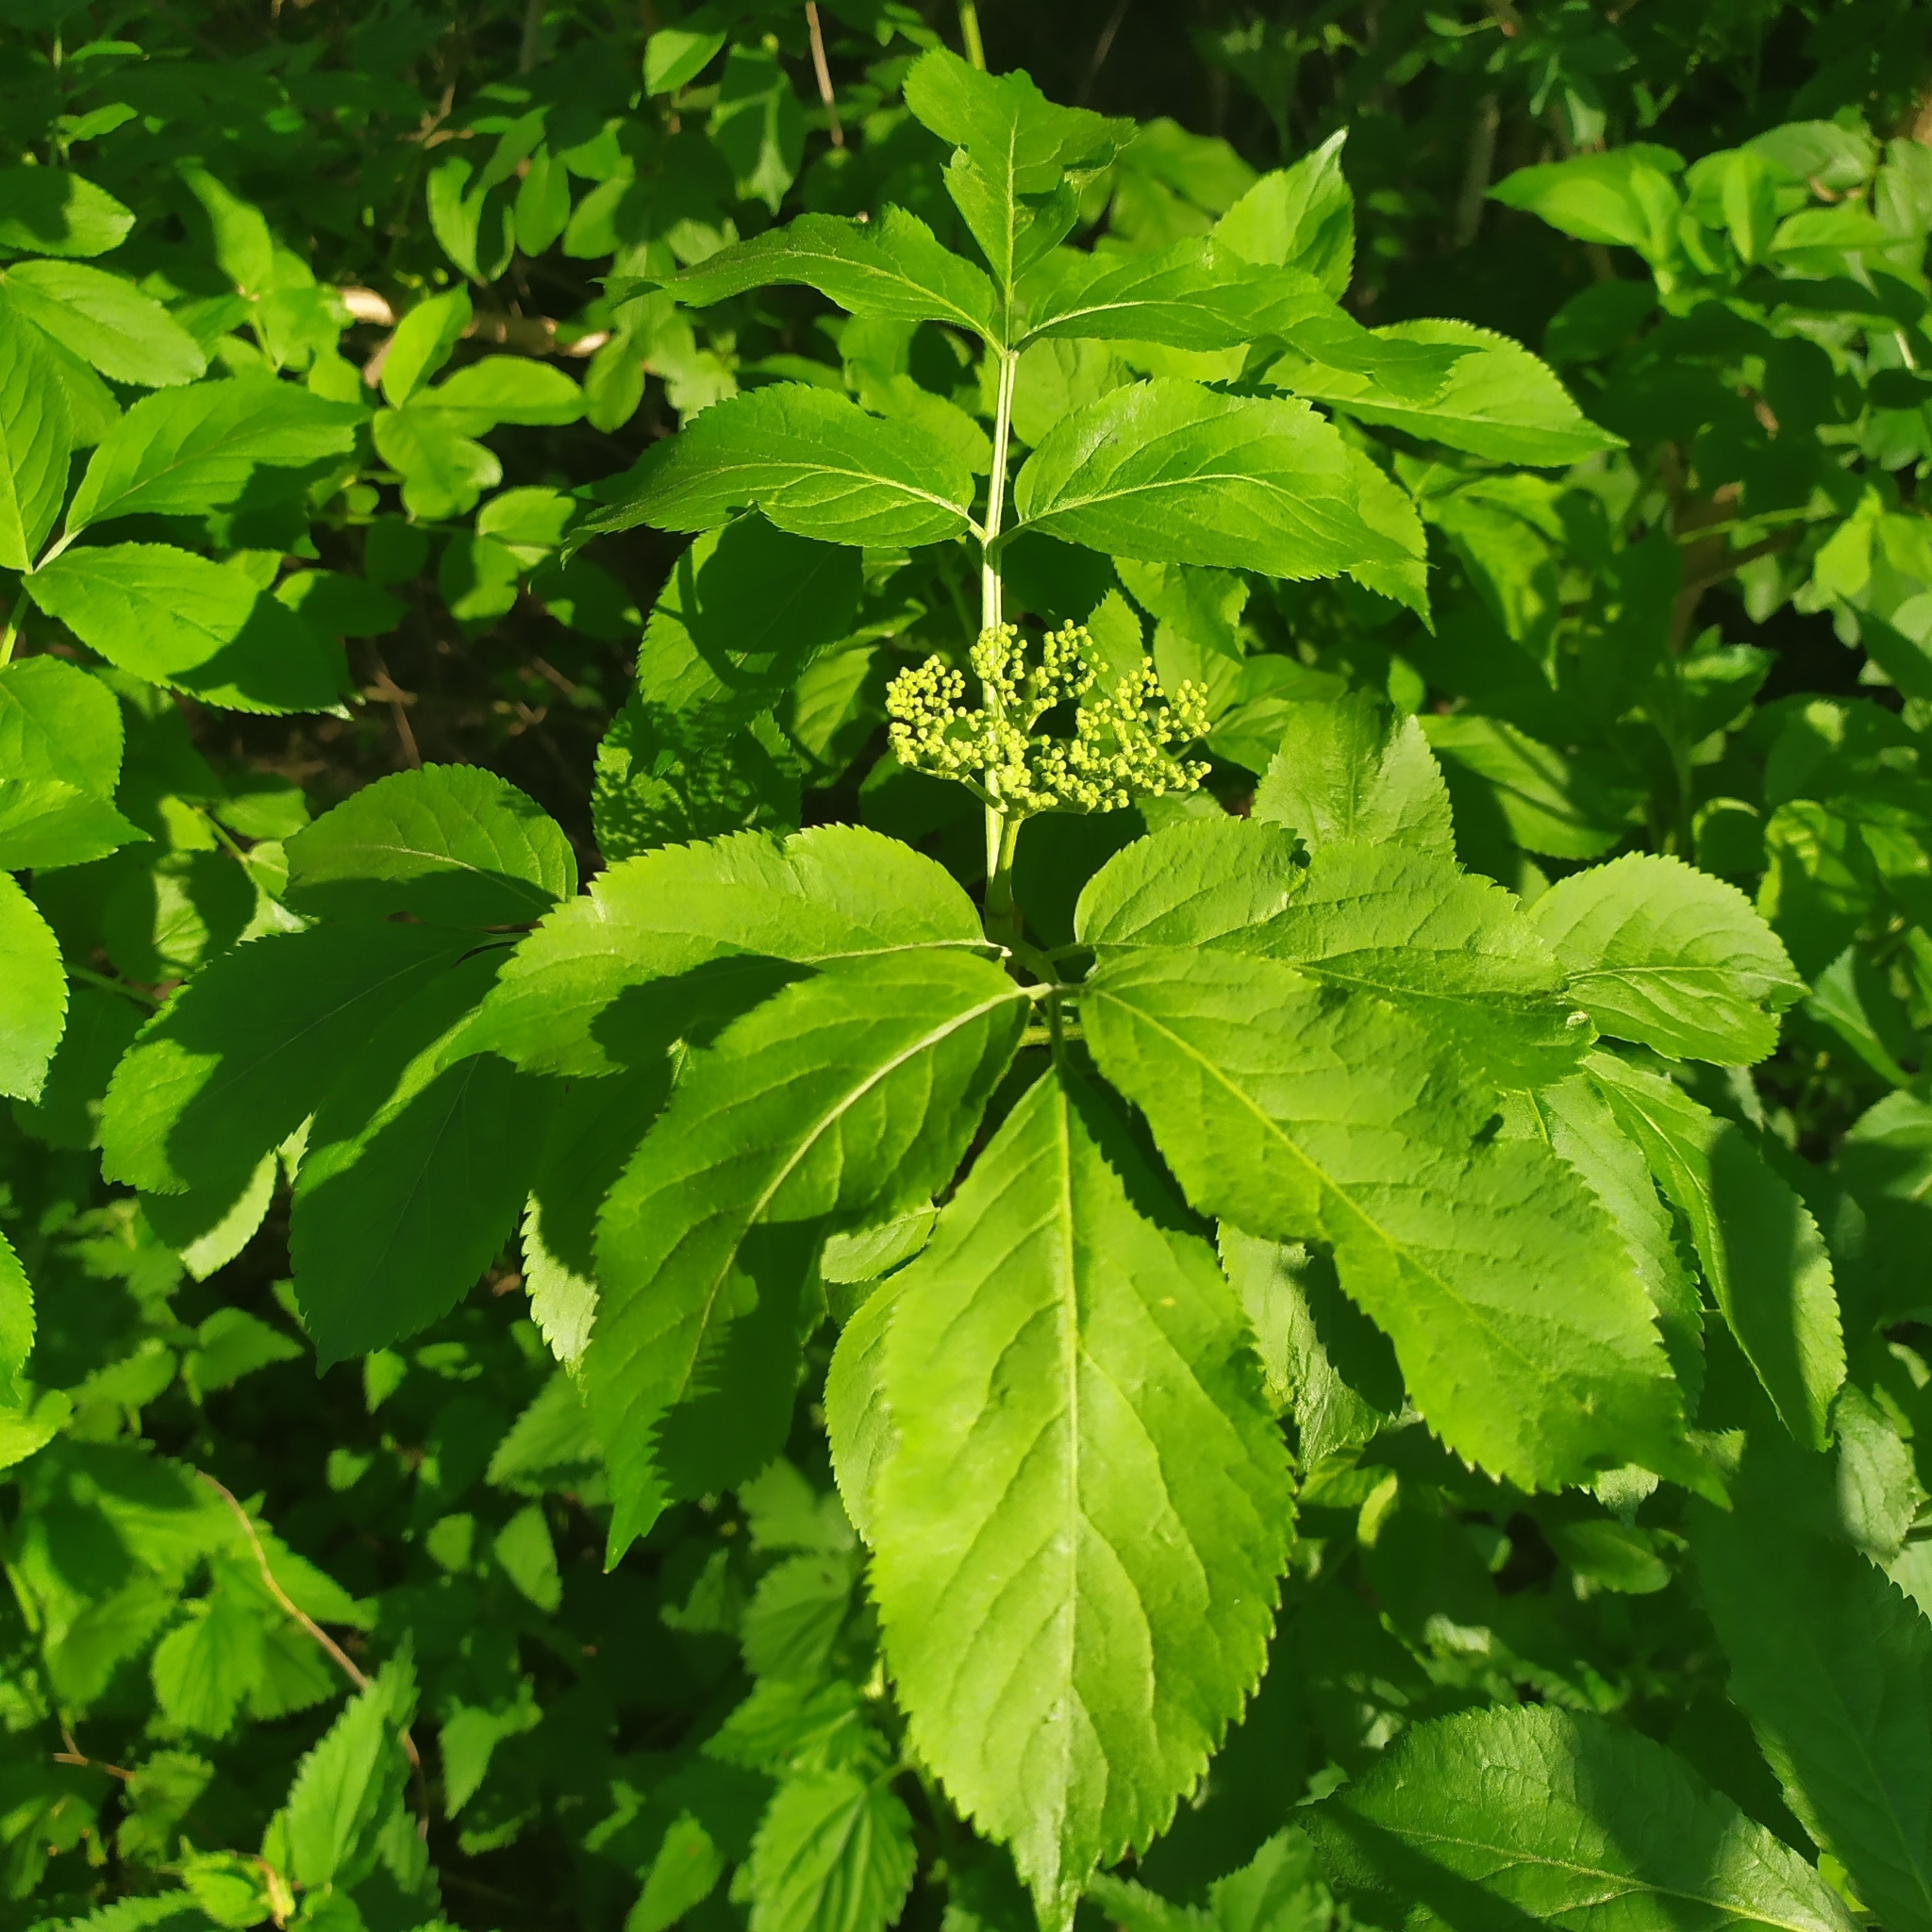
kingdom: Plantae
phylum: Tracheophyta
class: Magnoliopsida
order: Dipsacales
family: Viburnaceae
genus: Sambucus
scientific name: Sambucus nigra
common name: Elder
